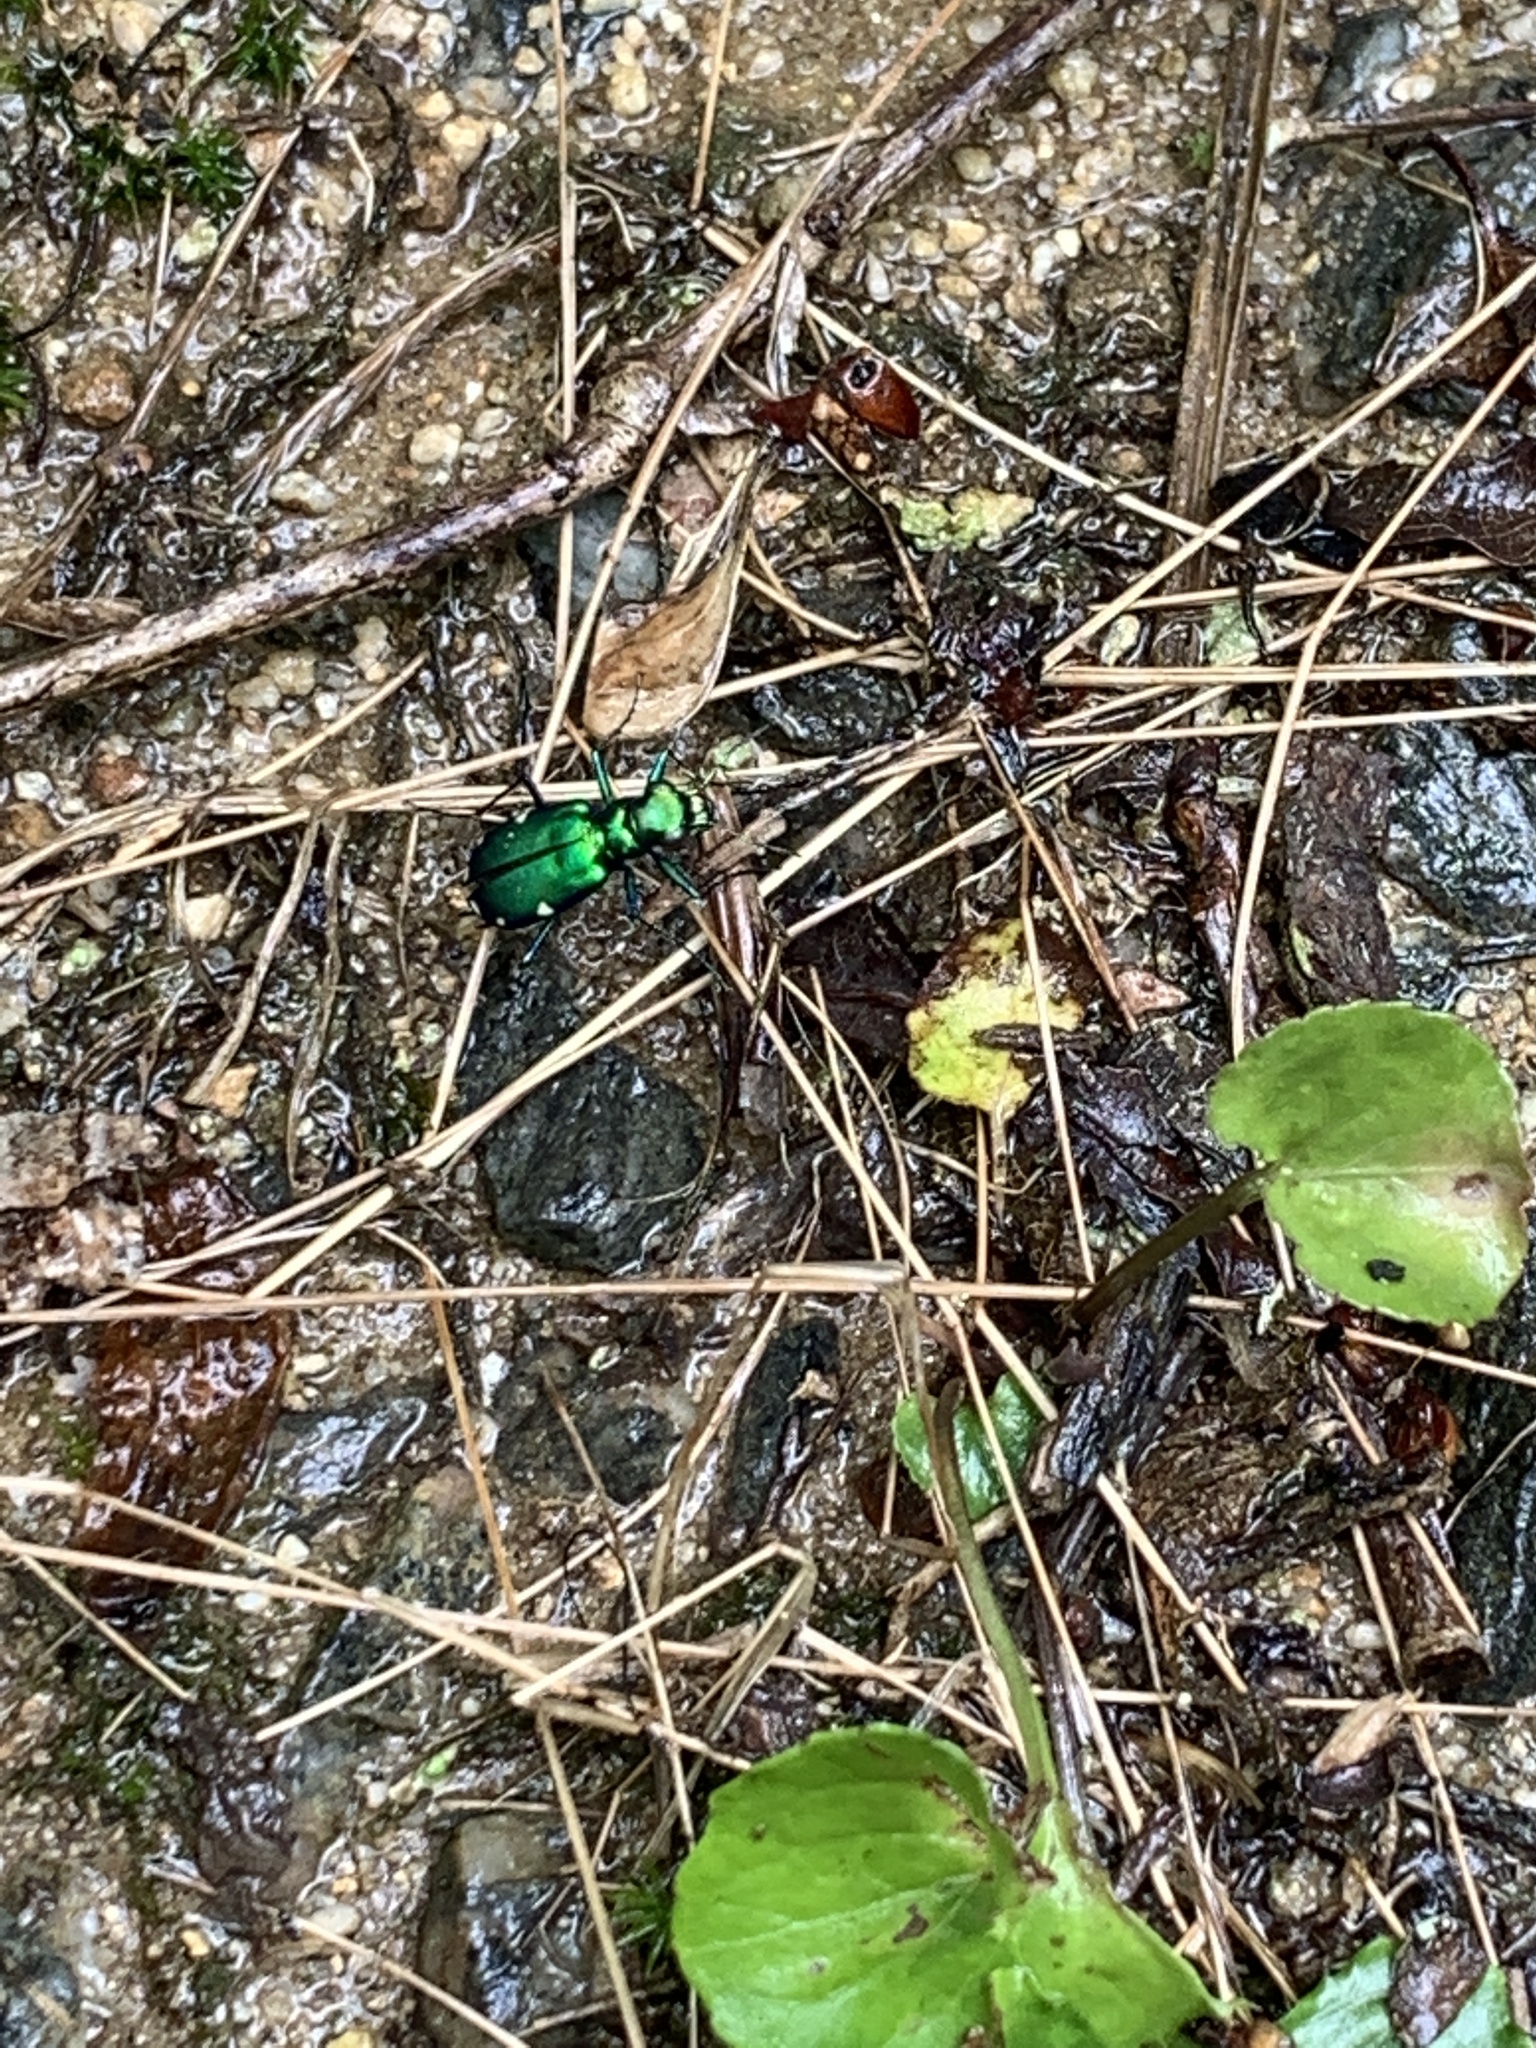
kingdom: Animalia
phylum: Arthropoda
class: Insecta
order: Coleoptera
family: Carabidae
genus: Cicindela
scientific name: Cicindela sexguttata
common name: Six-spotted tiger beetle
